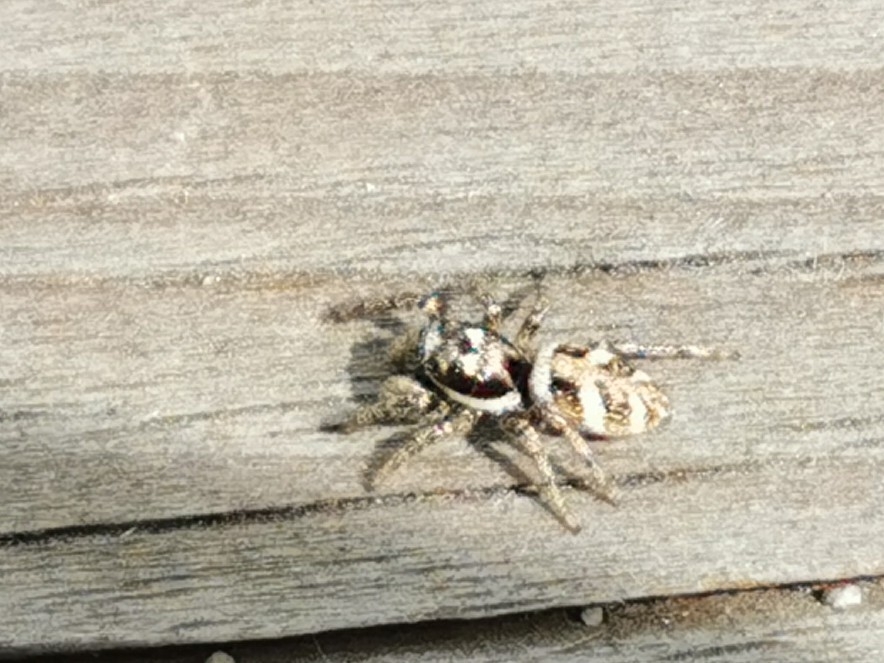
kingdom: Animalia
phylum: Arthropoda
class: Arachnida
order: Araneae
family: Salticidae
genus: Salticus
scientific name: Salticus scenicus
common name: Zebra jumper
